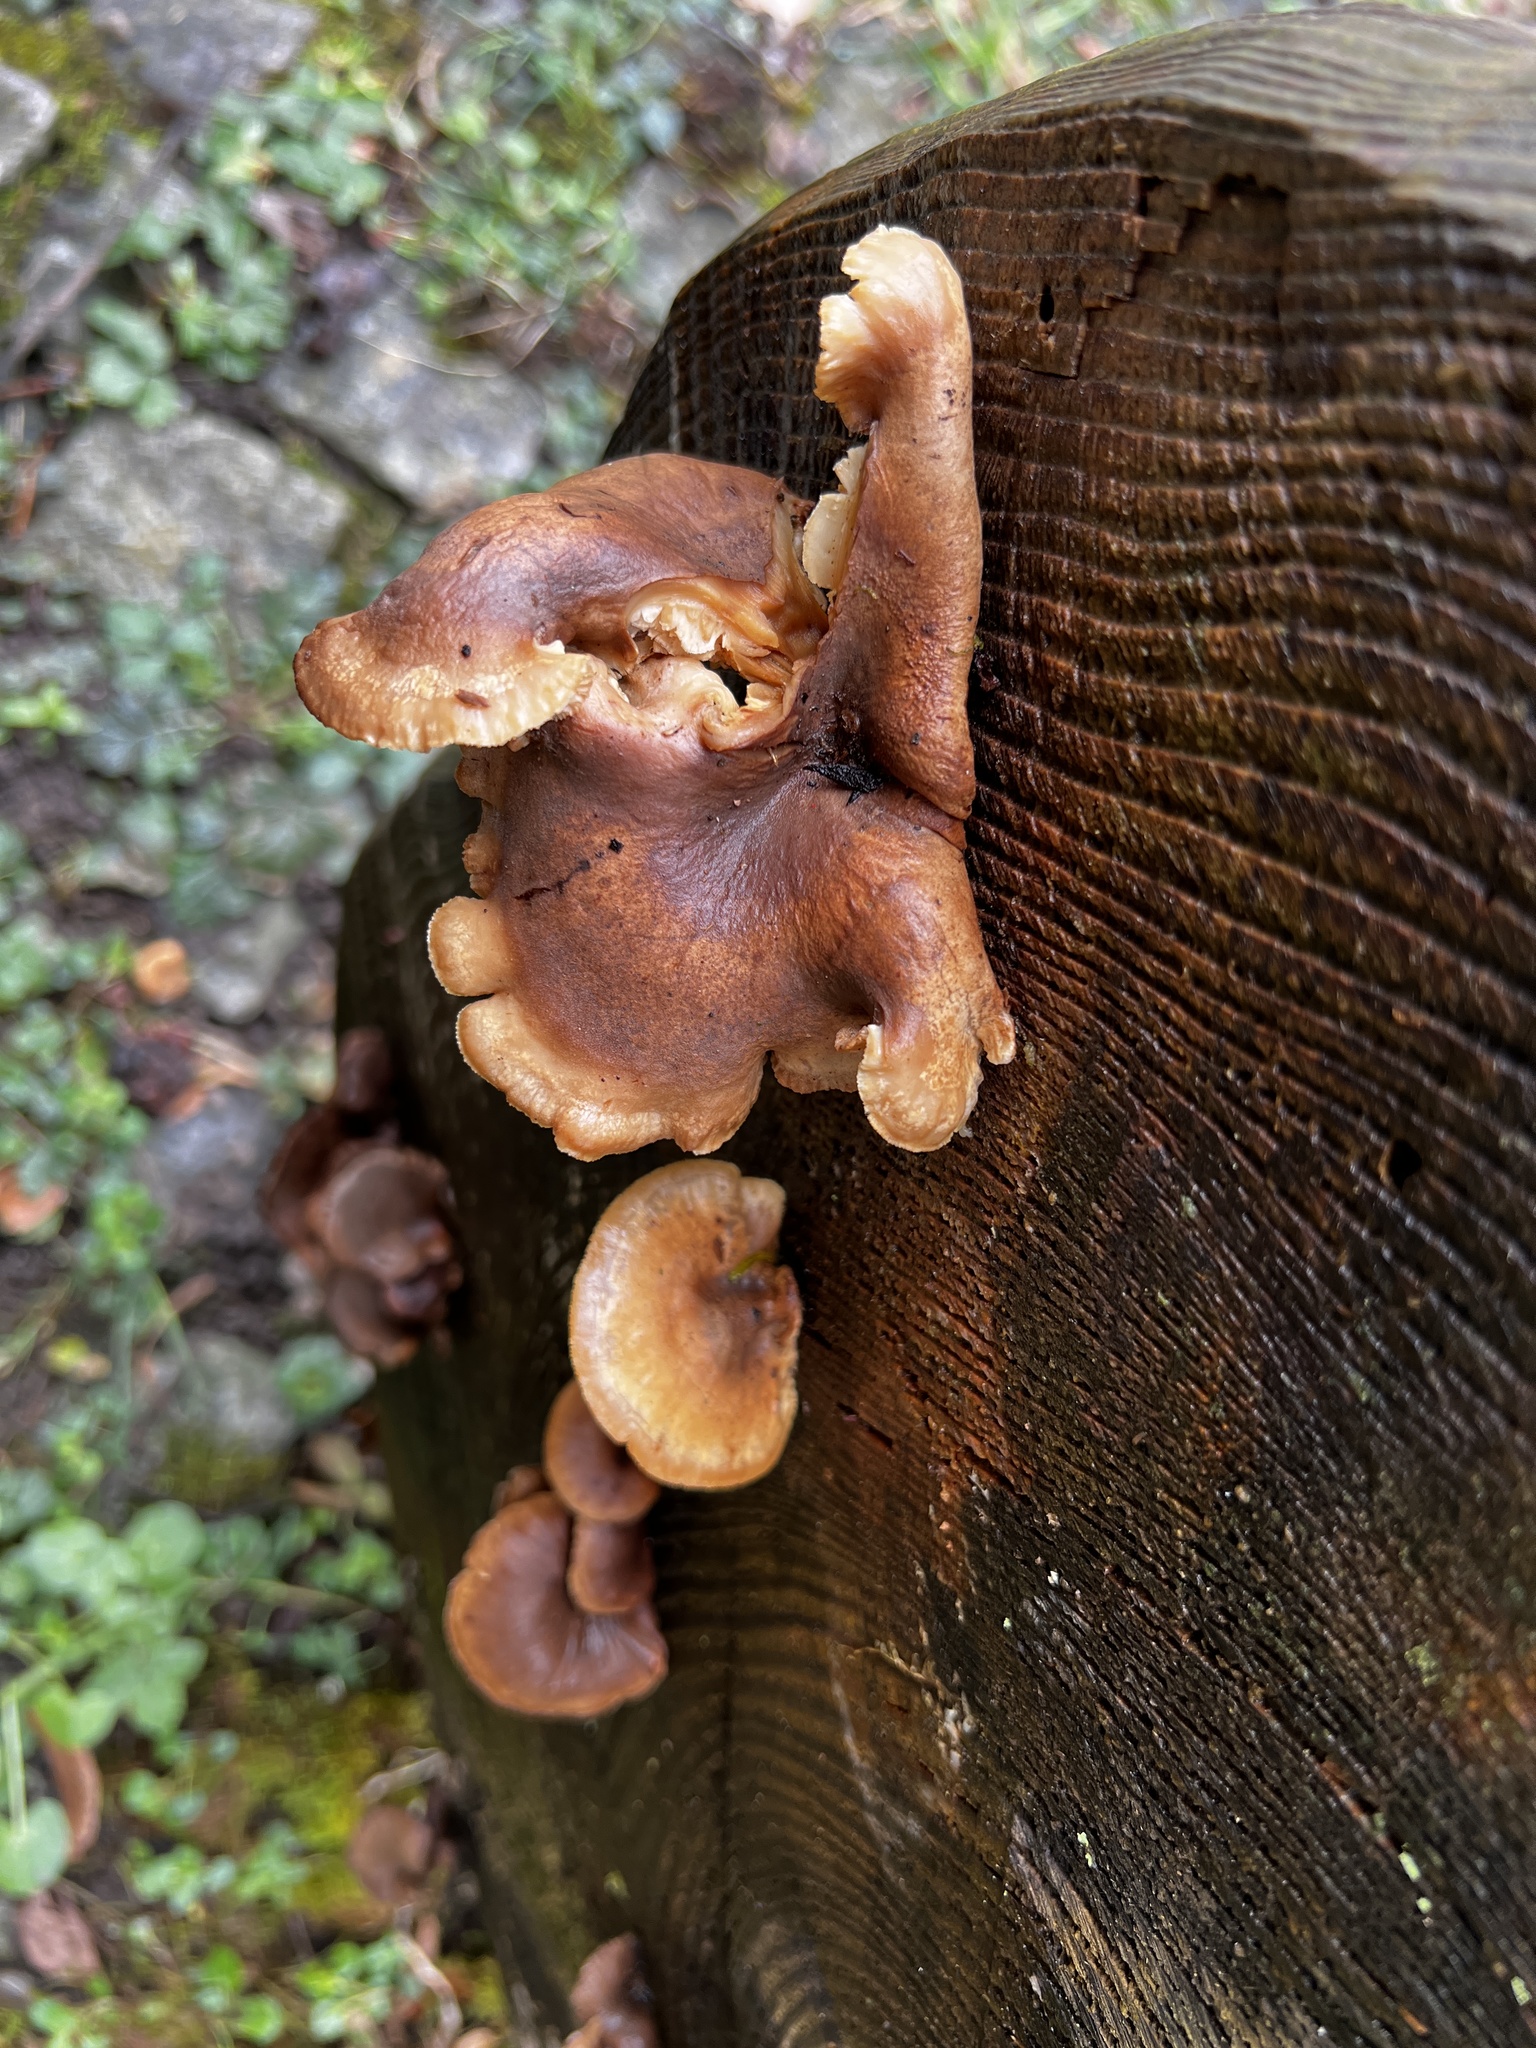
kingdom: Fungi
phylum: Basidiomycota
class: Agaricomycetes
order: Gloeophyllales
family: Gloeophyllaceae
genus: Neolentinus
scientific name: Neolentinus adhaerens
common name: Sticky sawgill
